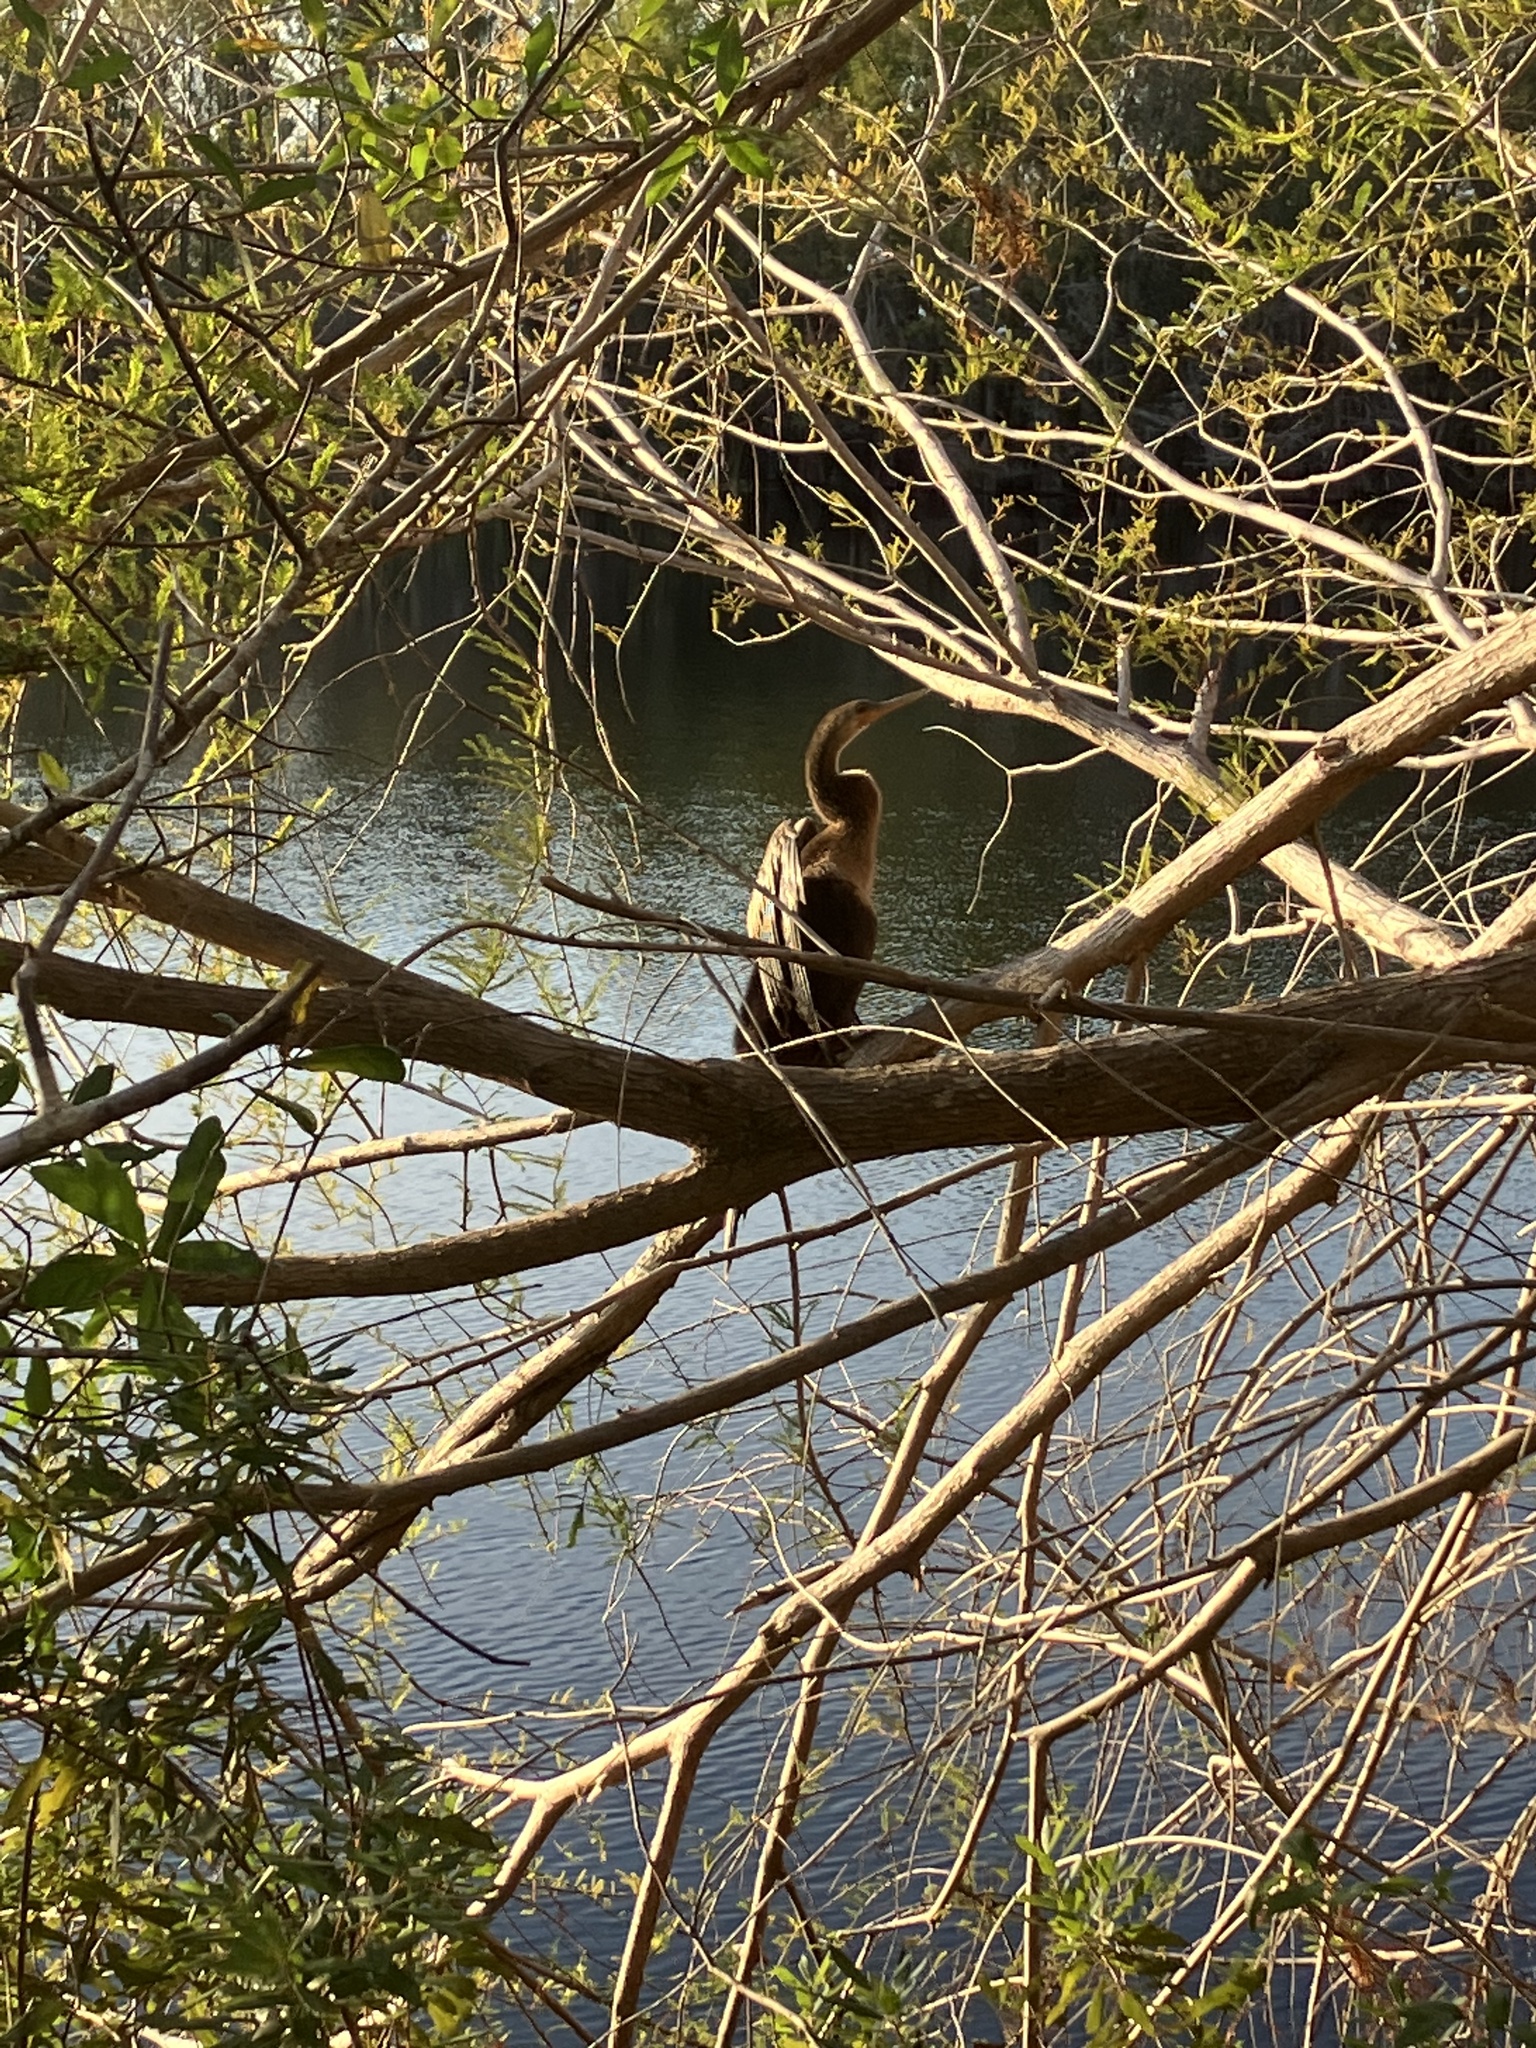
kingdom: Animalia
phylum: Chordata
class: Aves
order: Suliformes
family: Anhingidae
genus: Anhinga
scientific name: Anhinga anhinga
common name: Anhinga
